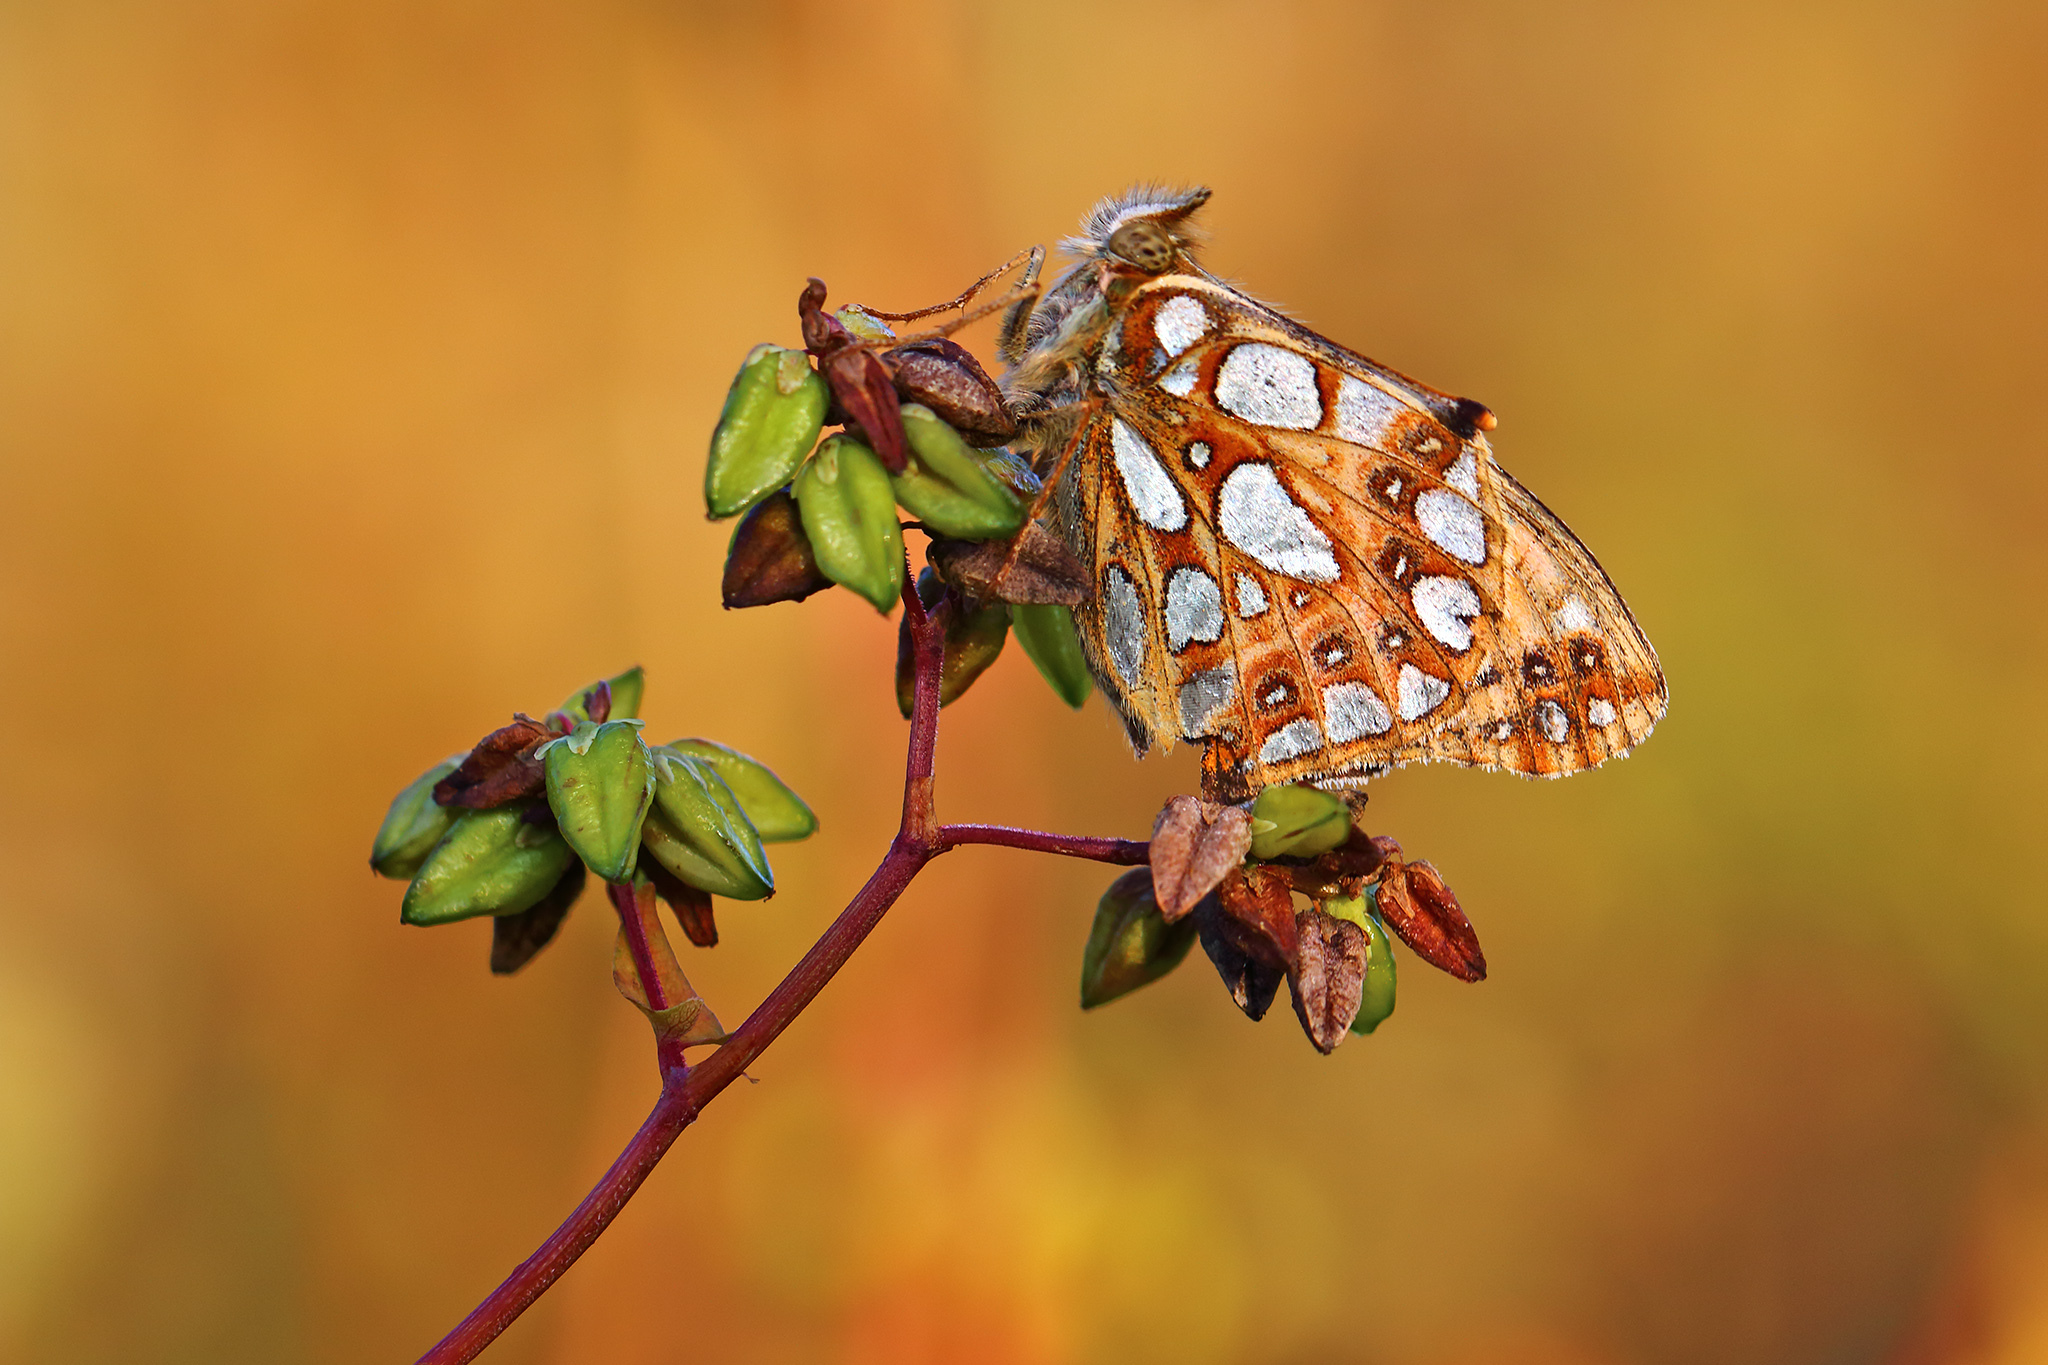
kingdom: Animalia
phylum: Arthropoda
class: Insecta
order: Lepidoptera
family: Nymphalidae
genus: Issoria
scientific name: Issoria lathonia
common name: Queen of spain fritillary
